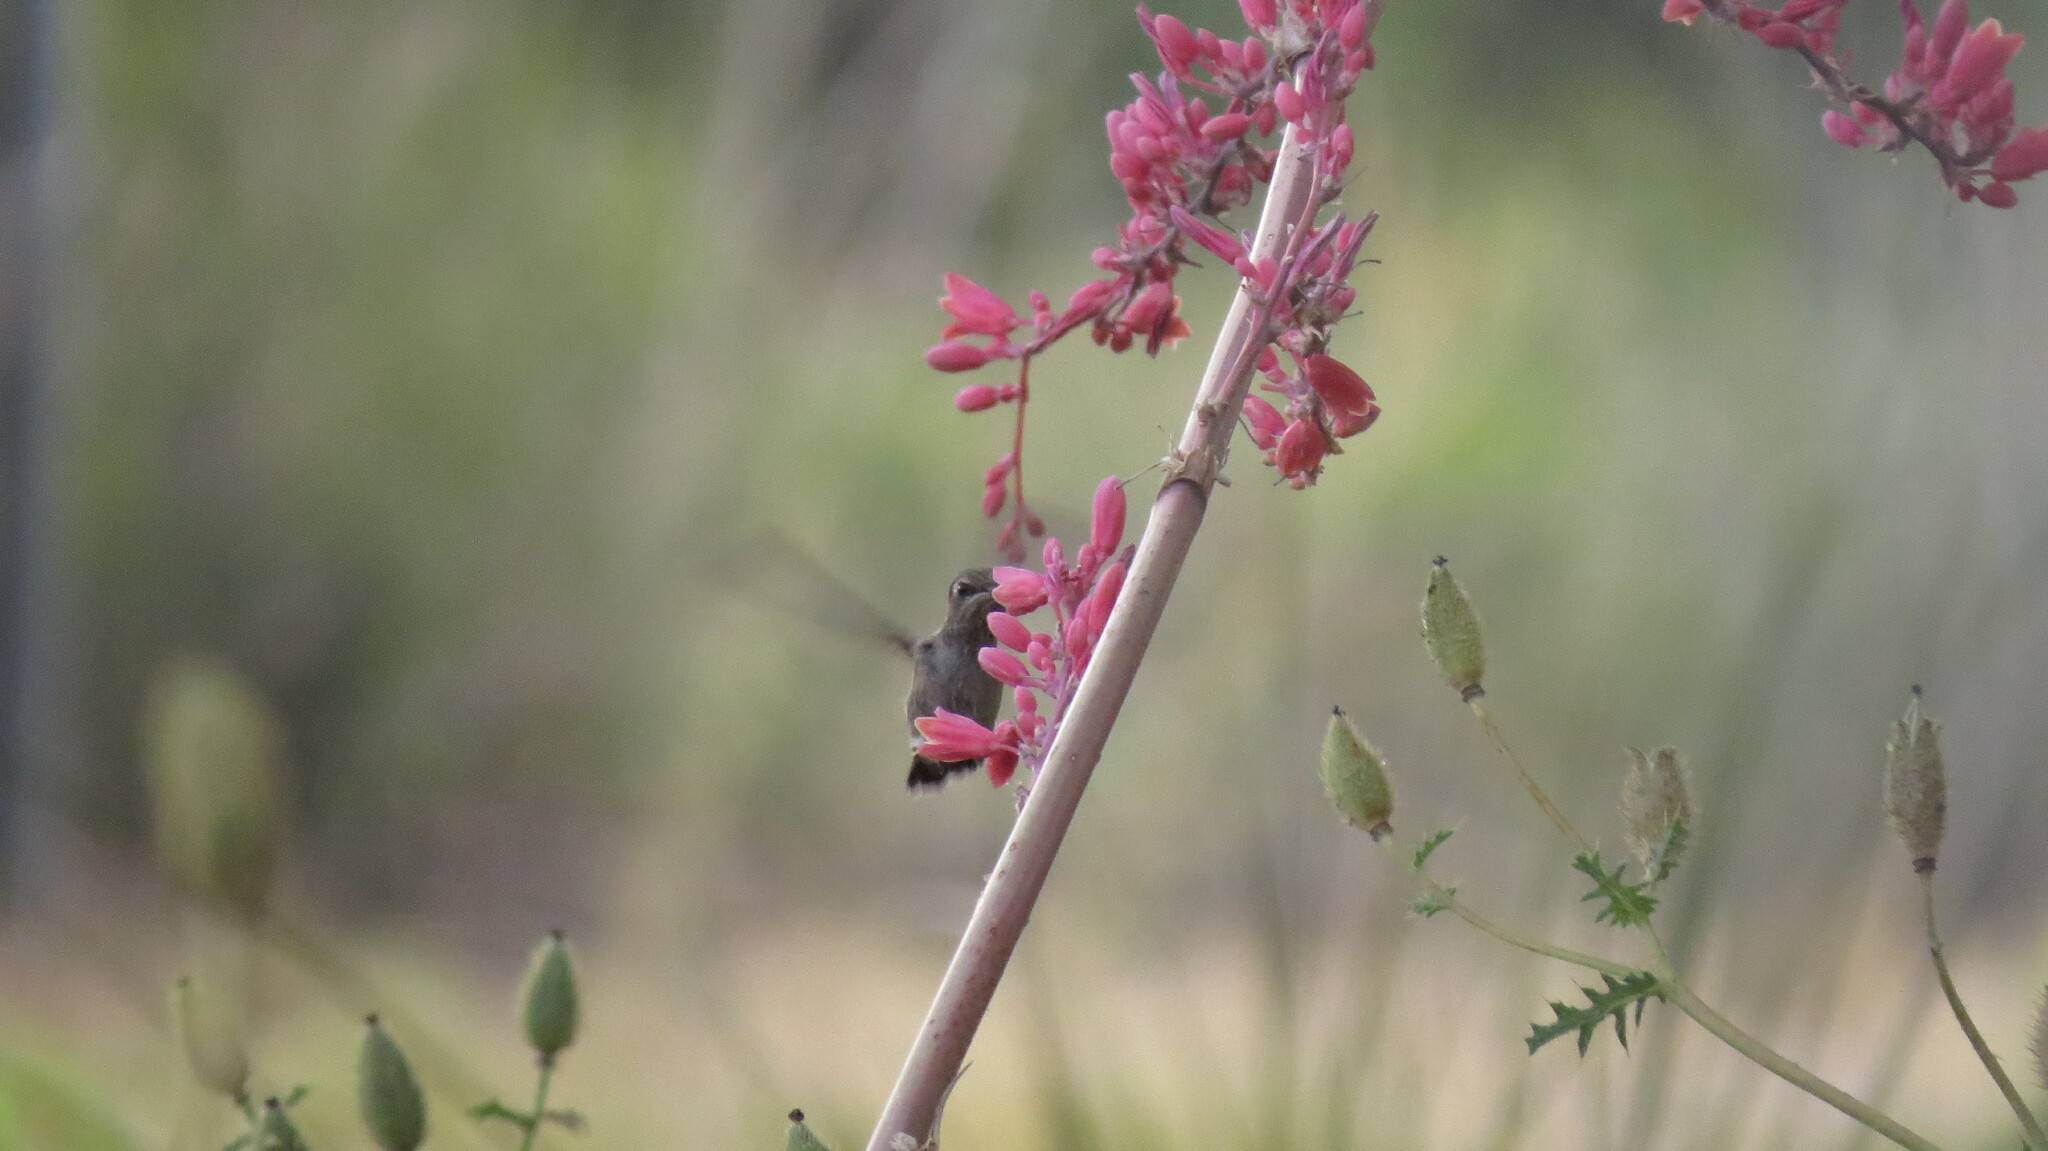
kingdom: Animalia
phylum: Chordata
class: Aves
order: Apodiformes
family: Trochilidae
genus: Archilochus
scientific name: Archilochus alexandri
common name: Black-chinned hummingbird
